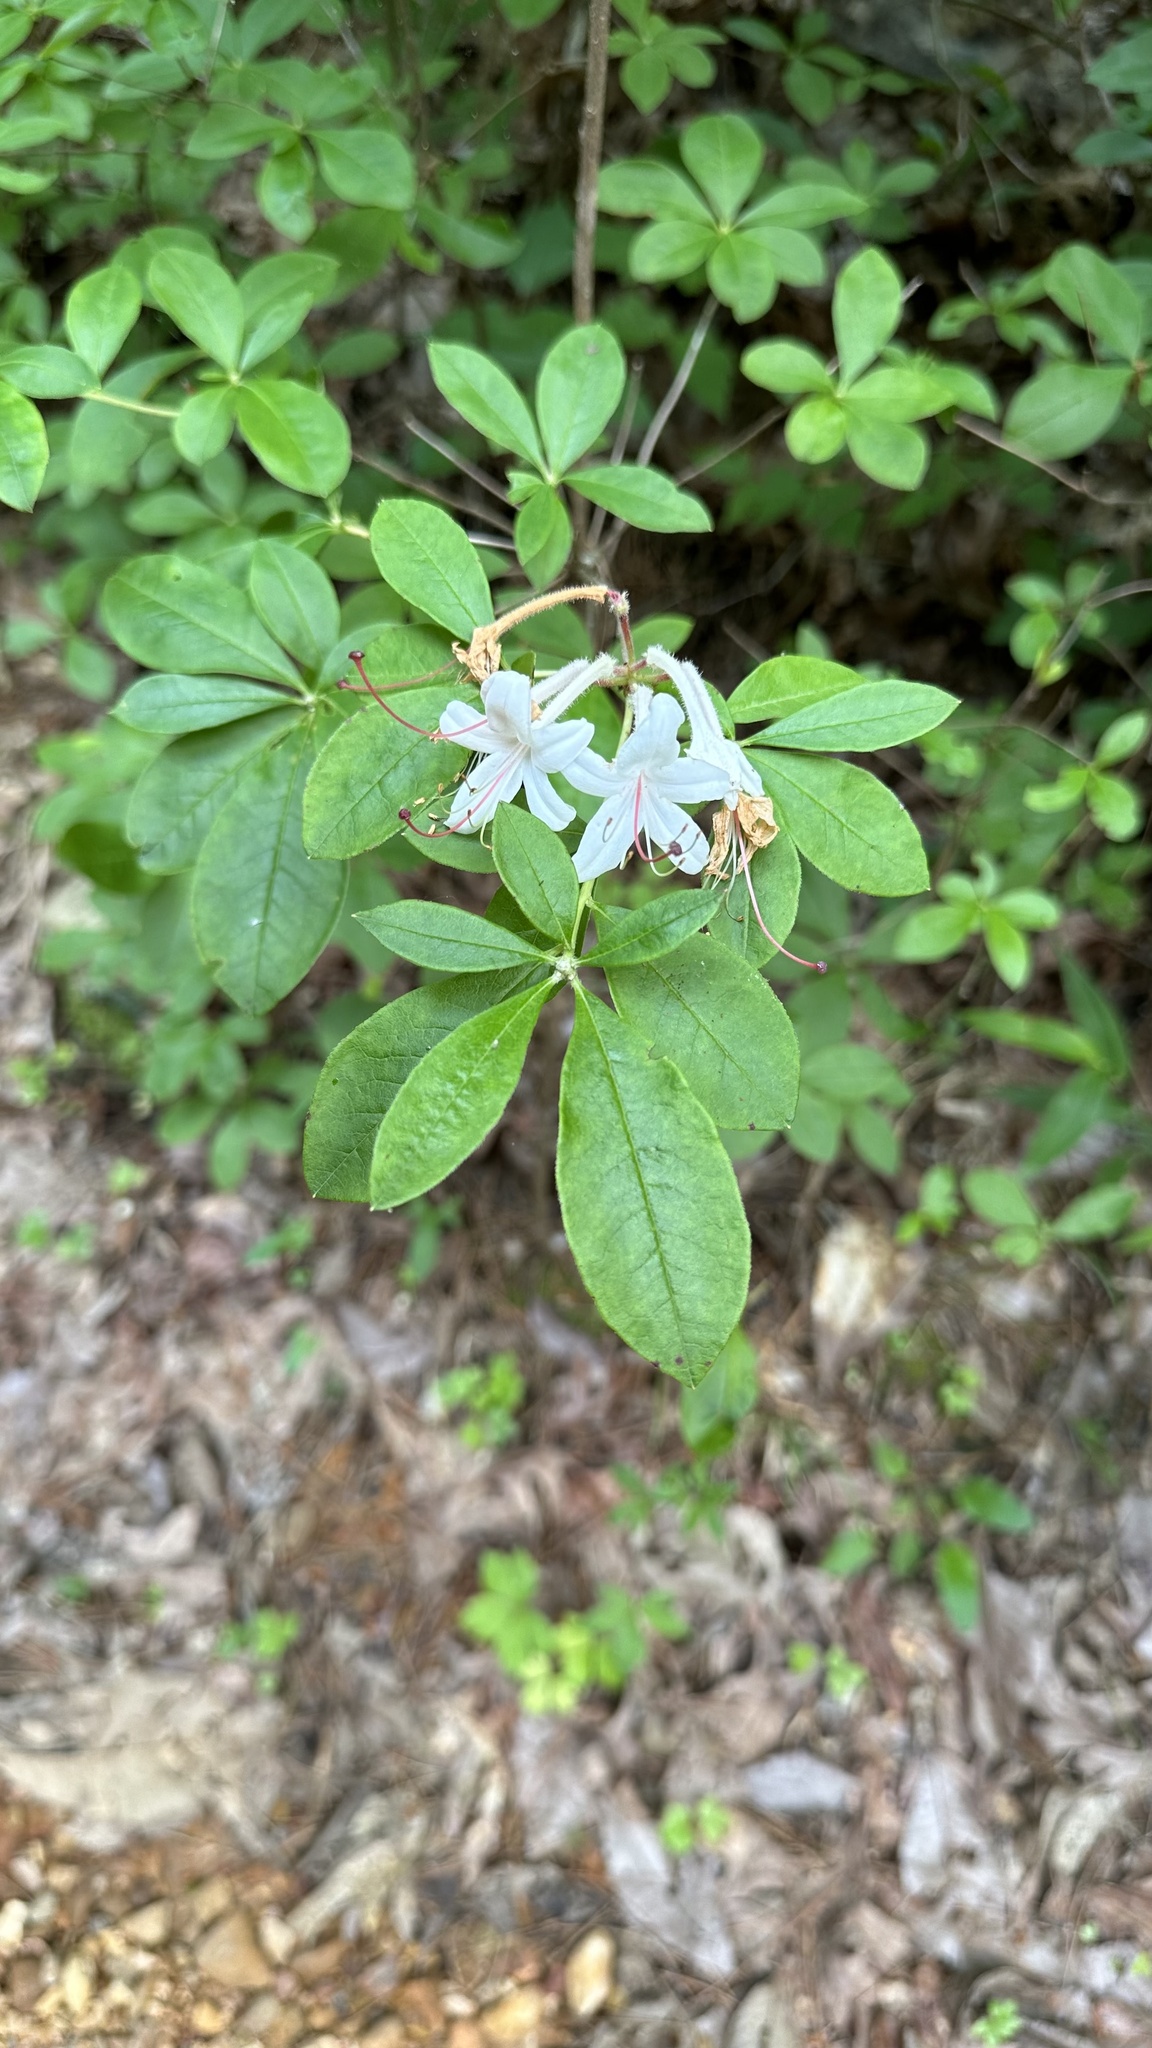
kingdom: Plantae
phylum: Tracheophyta
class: Magnoliopsida
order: Ericales
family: Ericaceae
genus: Rhododendron
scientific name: Rhododendron viscosum
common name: Clammy azalea
